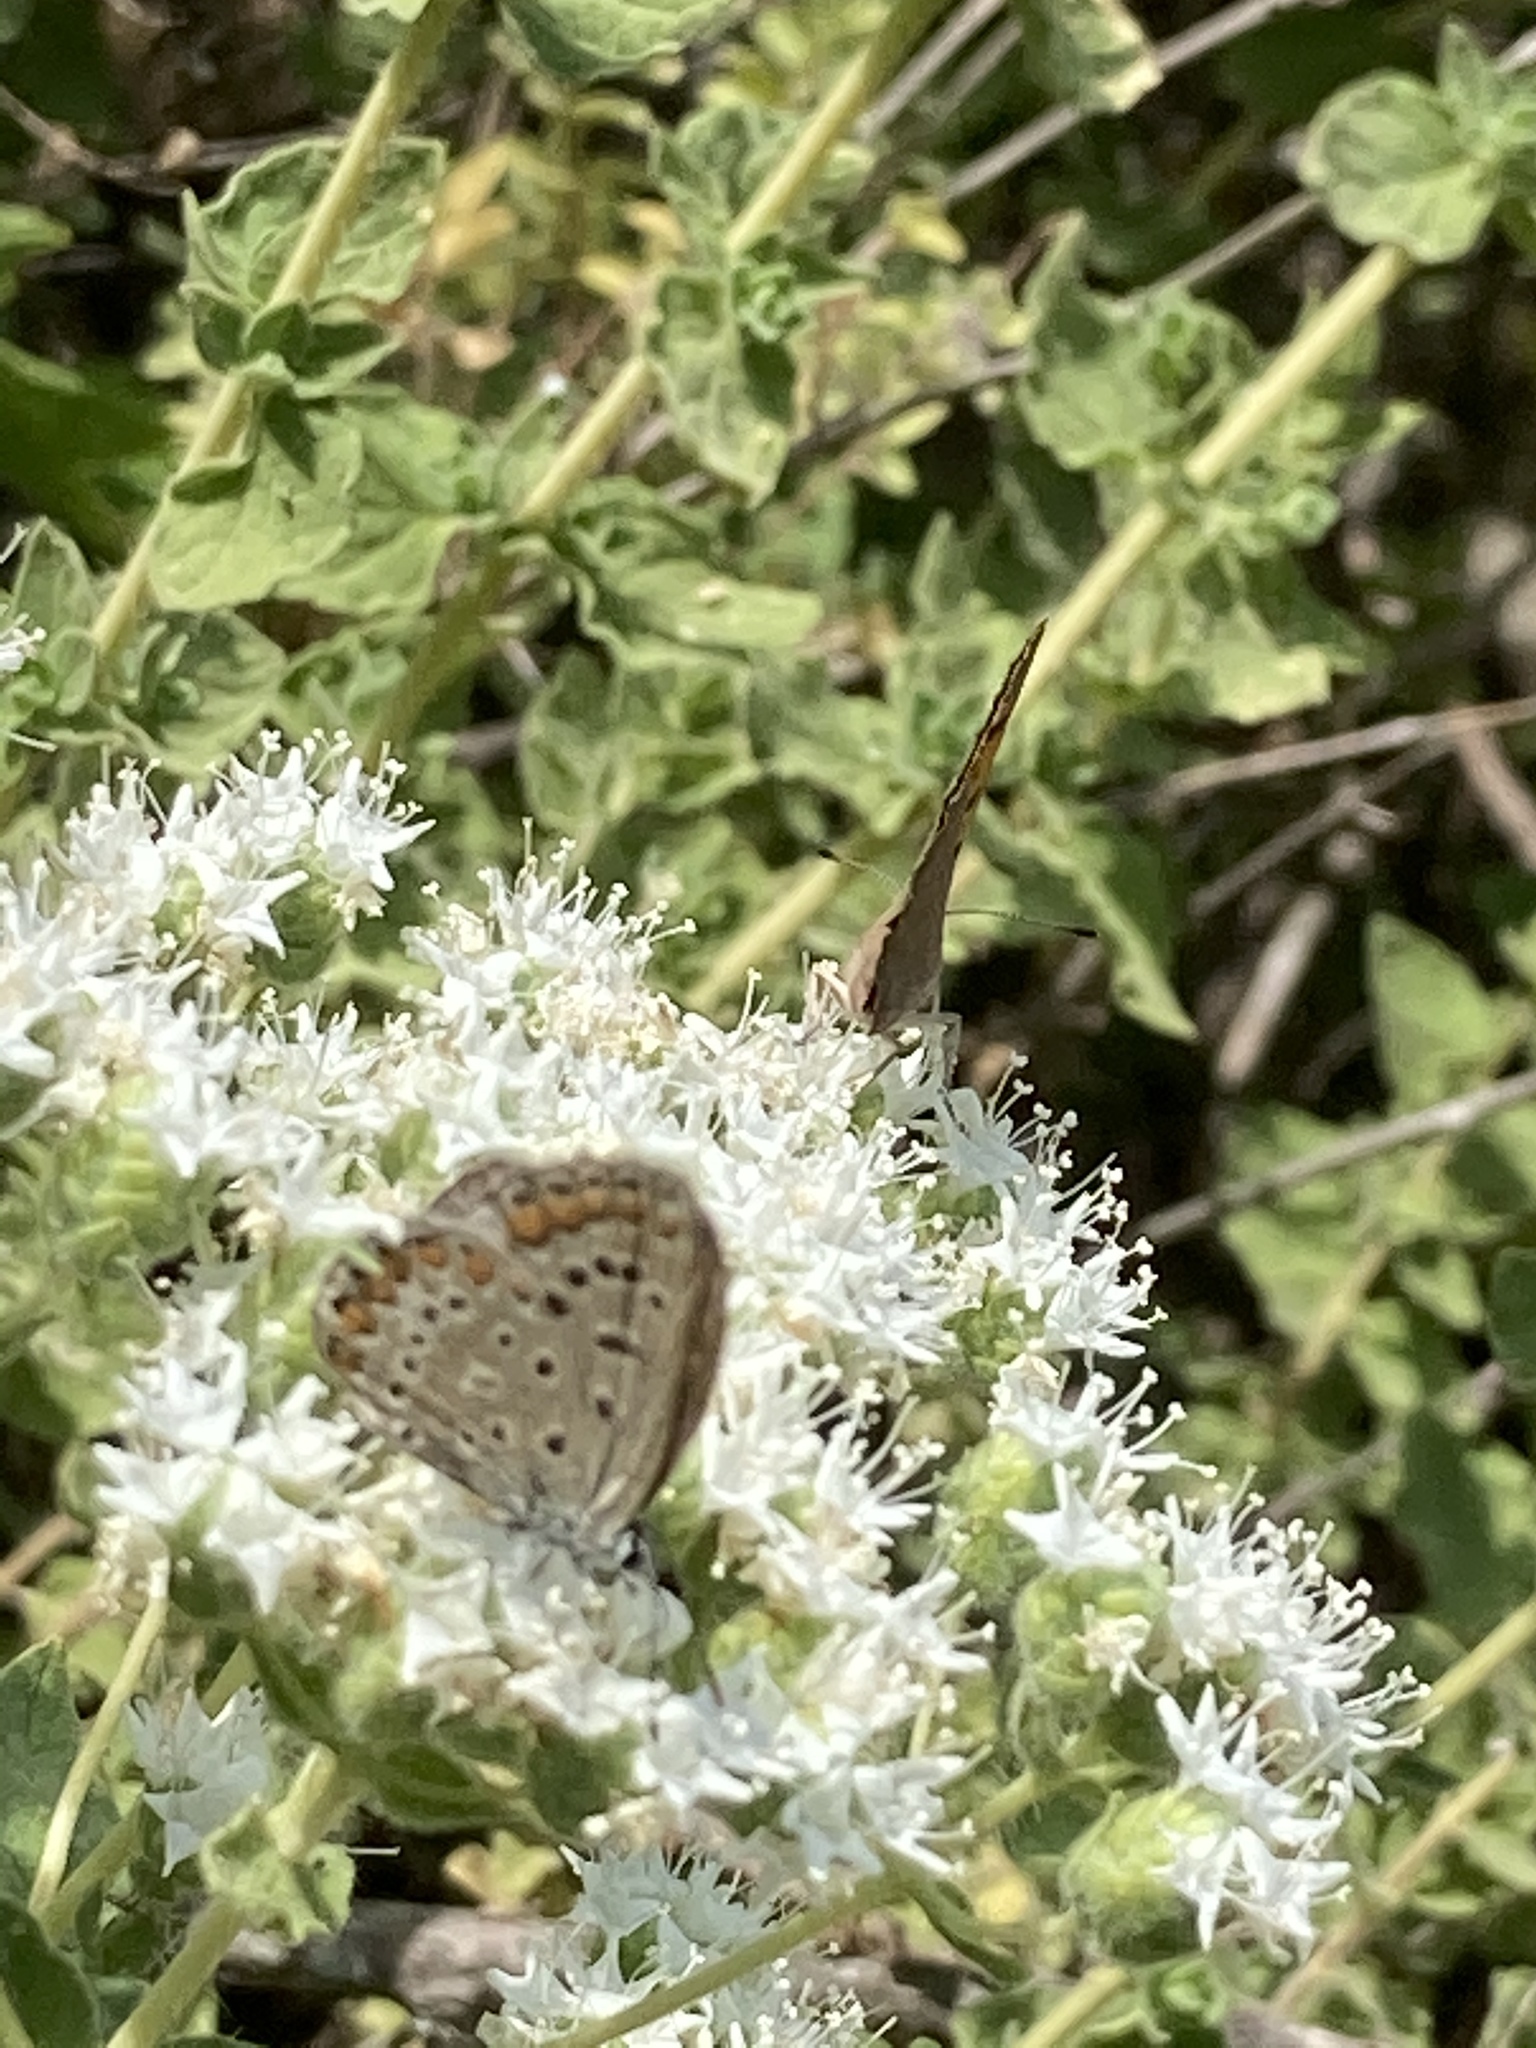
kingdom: Animalia
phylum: Arthropoda
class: Insecta
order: Lepidoptera
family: Lycaenidae
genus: Polyommatus
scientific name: Polyommatus icarus
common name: Common blue
